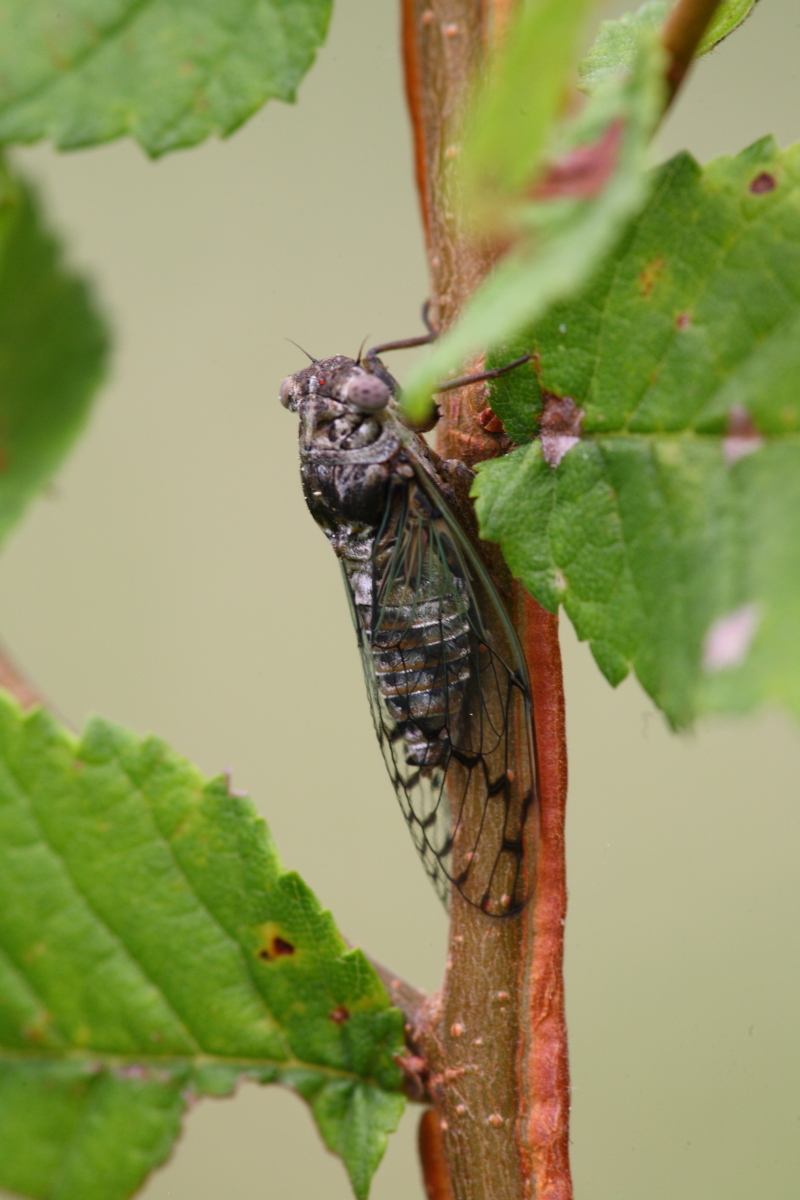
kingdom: Animalia
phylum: Arthropoda
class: Insecta
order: Hemiptera
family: Cicadidae
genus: Pacarina
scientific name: Pacarina puella
